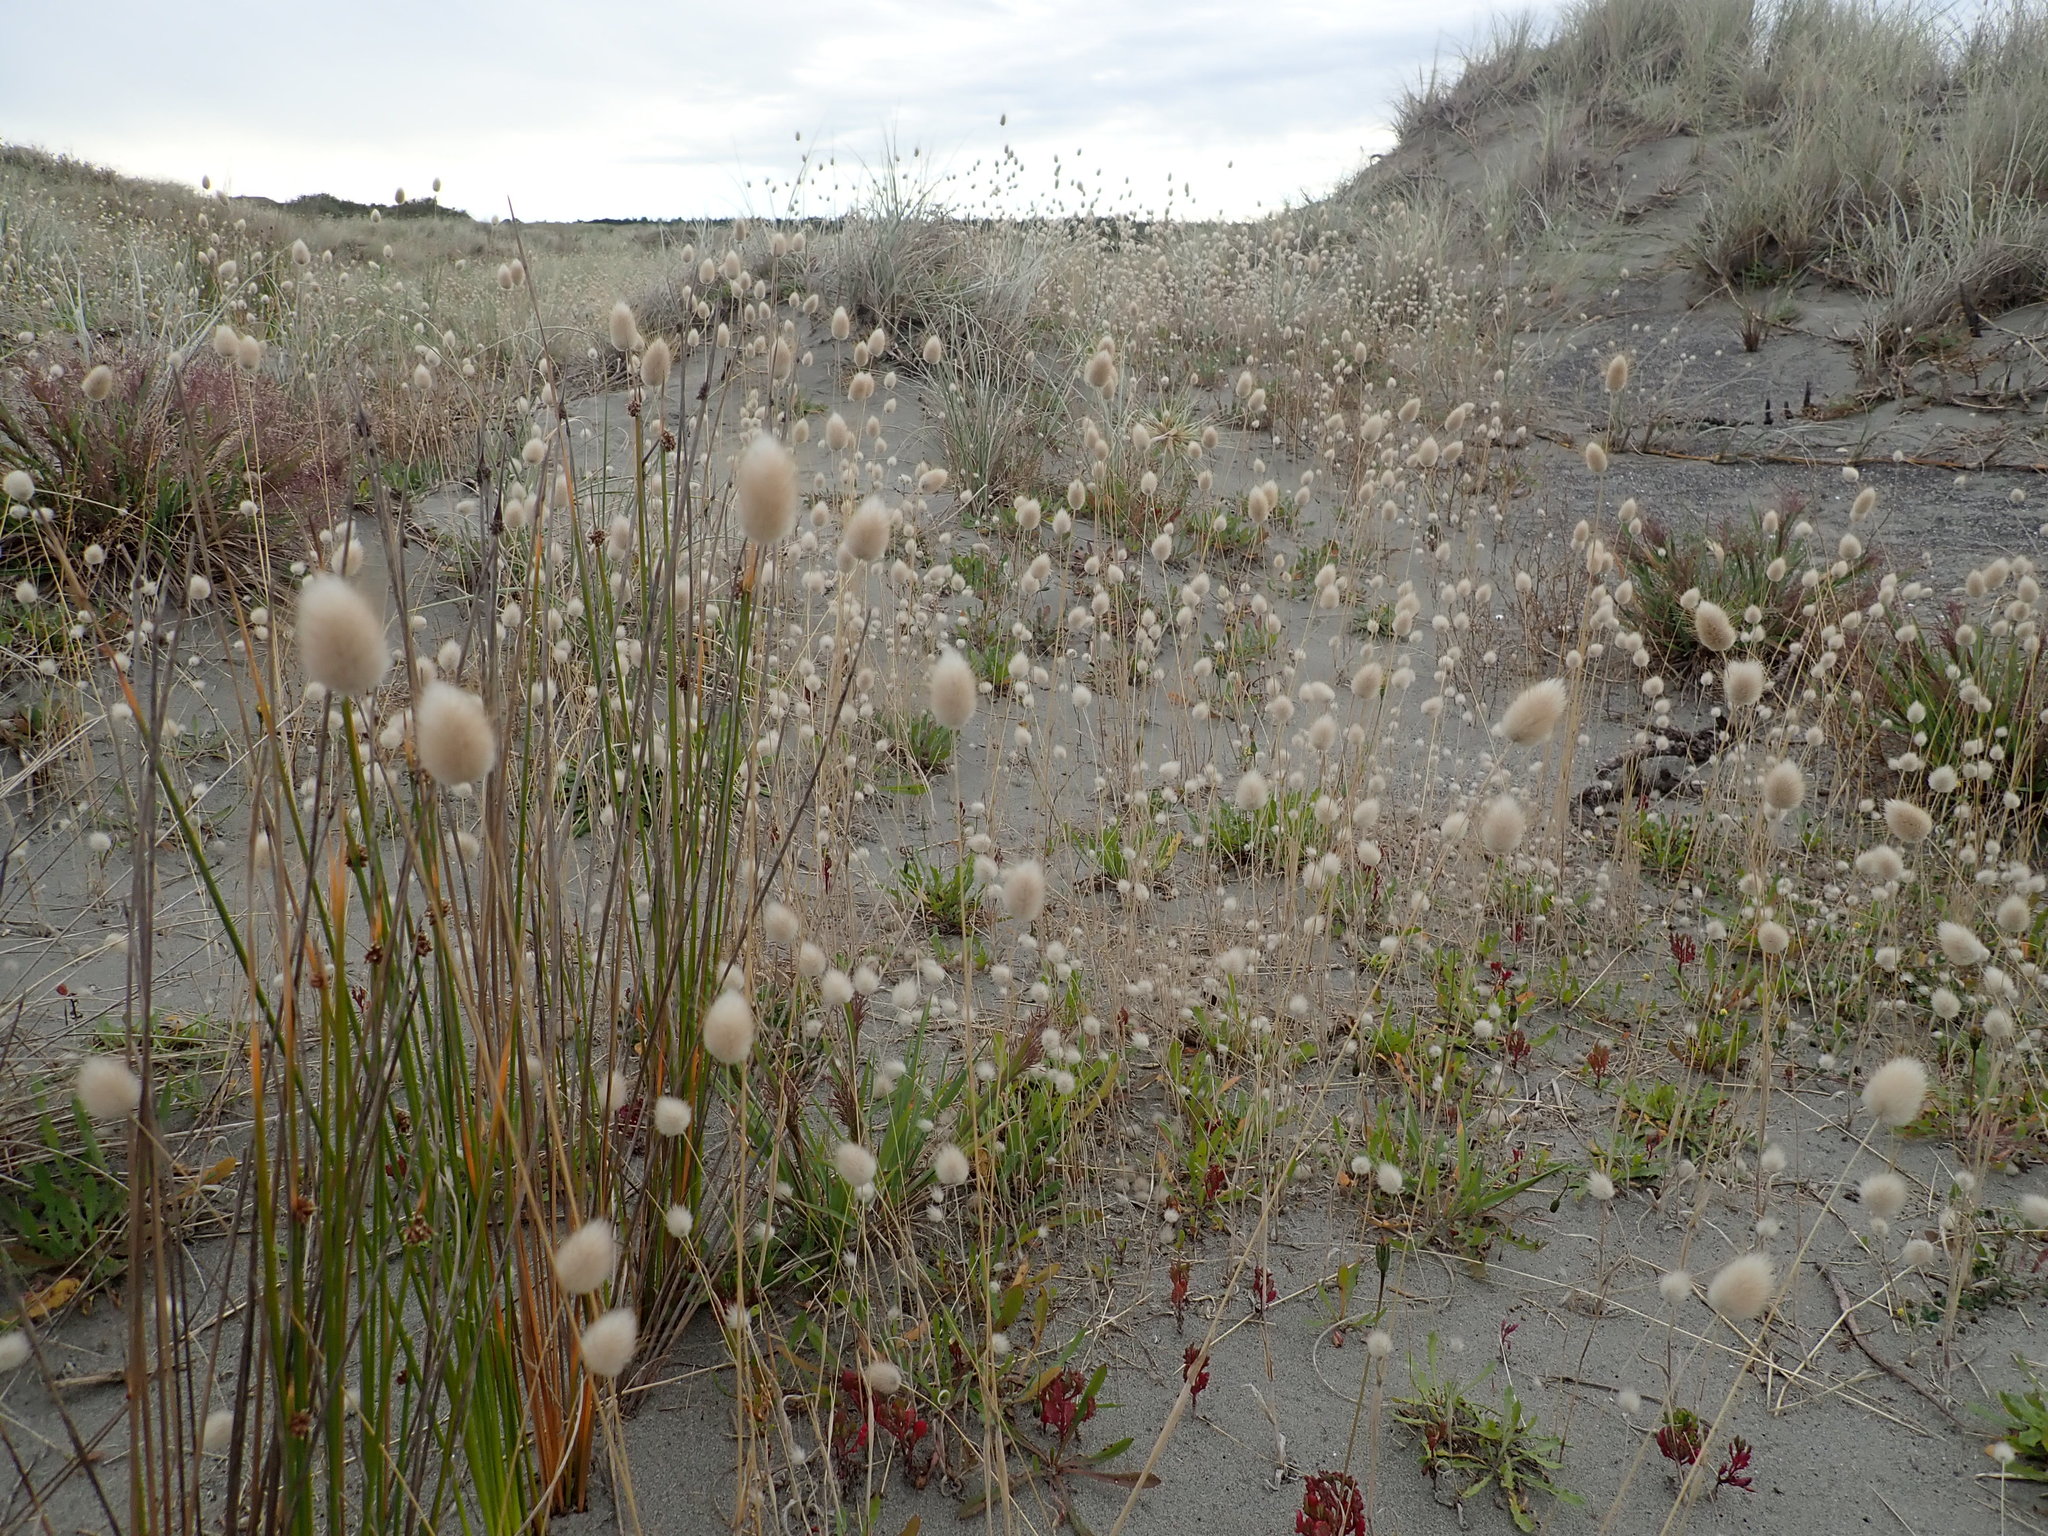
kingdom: Plantae
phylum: Tracheophyta
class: Liliopsida
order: Poales
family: Poaceae
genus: Lagurus
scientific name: Lagurus ovatus
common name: Hare's-tail
